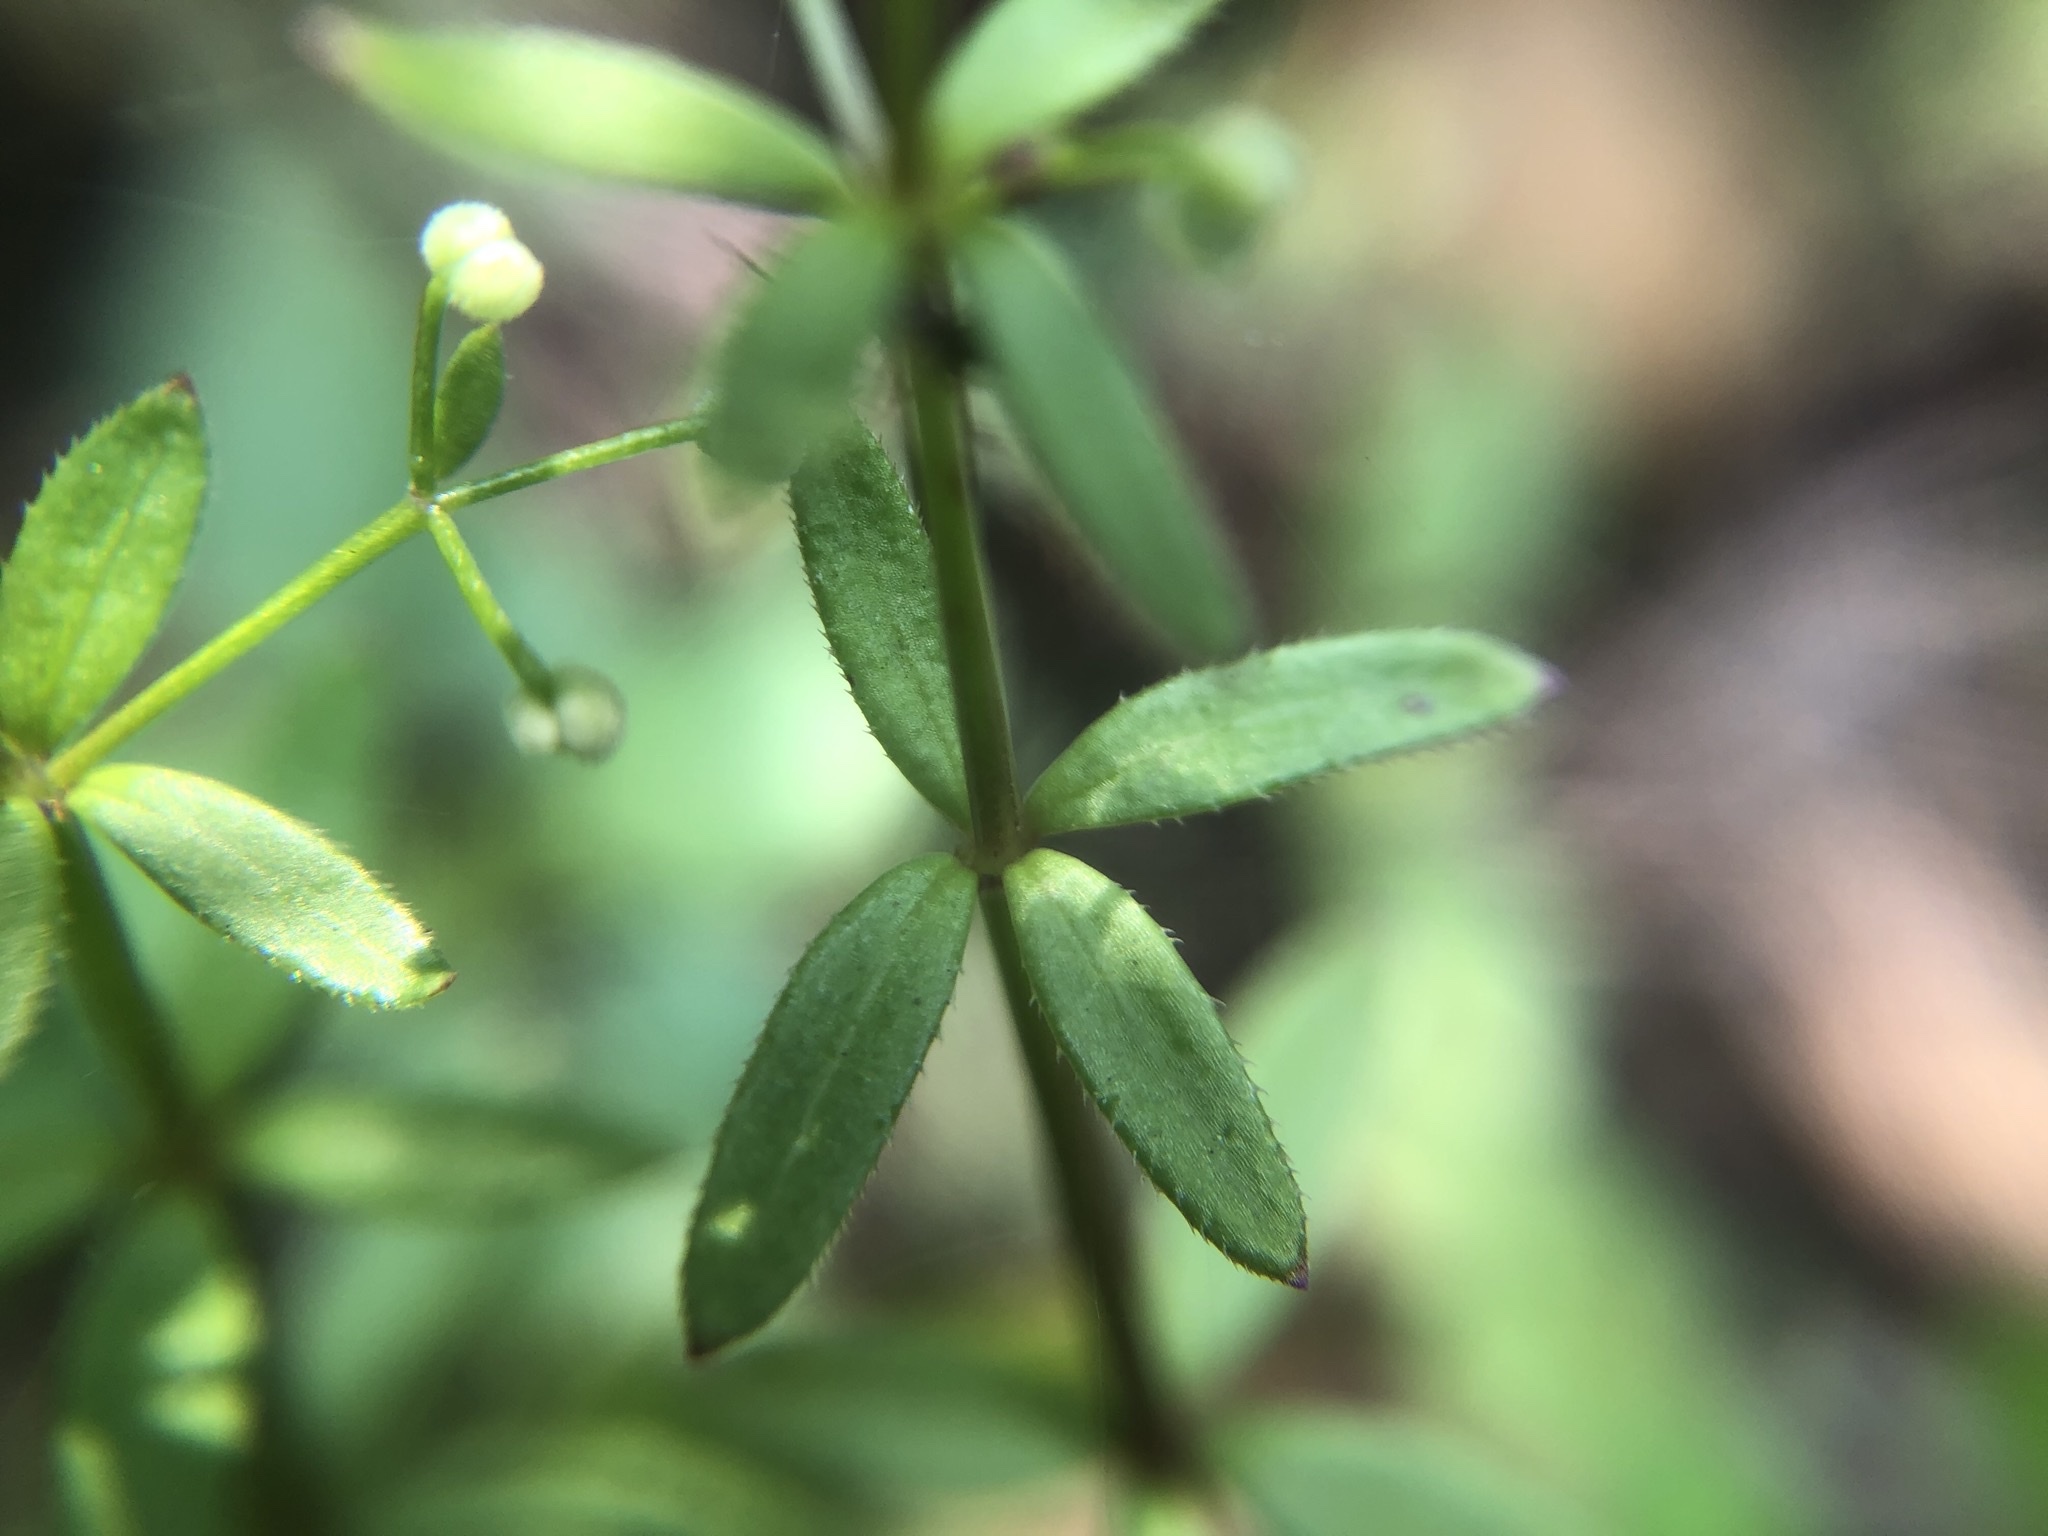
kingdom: Plantae
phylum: Tracheophyta
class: Magnoliopsida
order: Gentianales
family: Rubiaceae
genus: Galium
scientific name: Galium bungei
